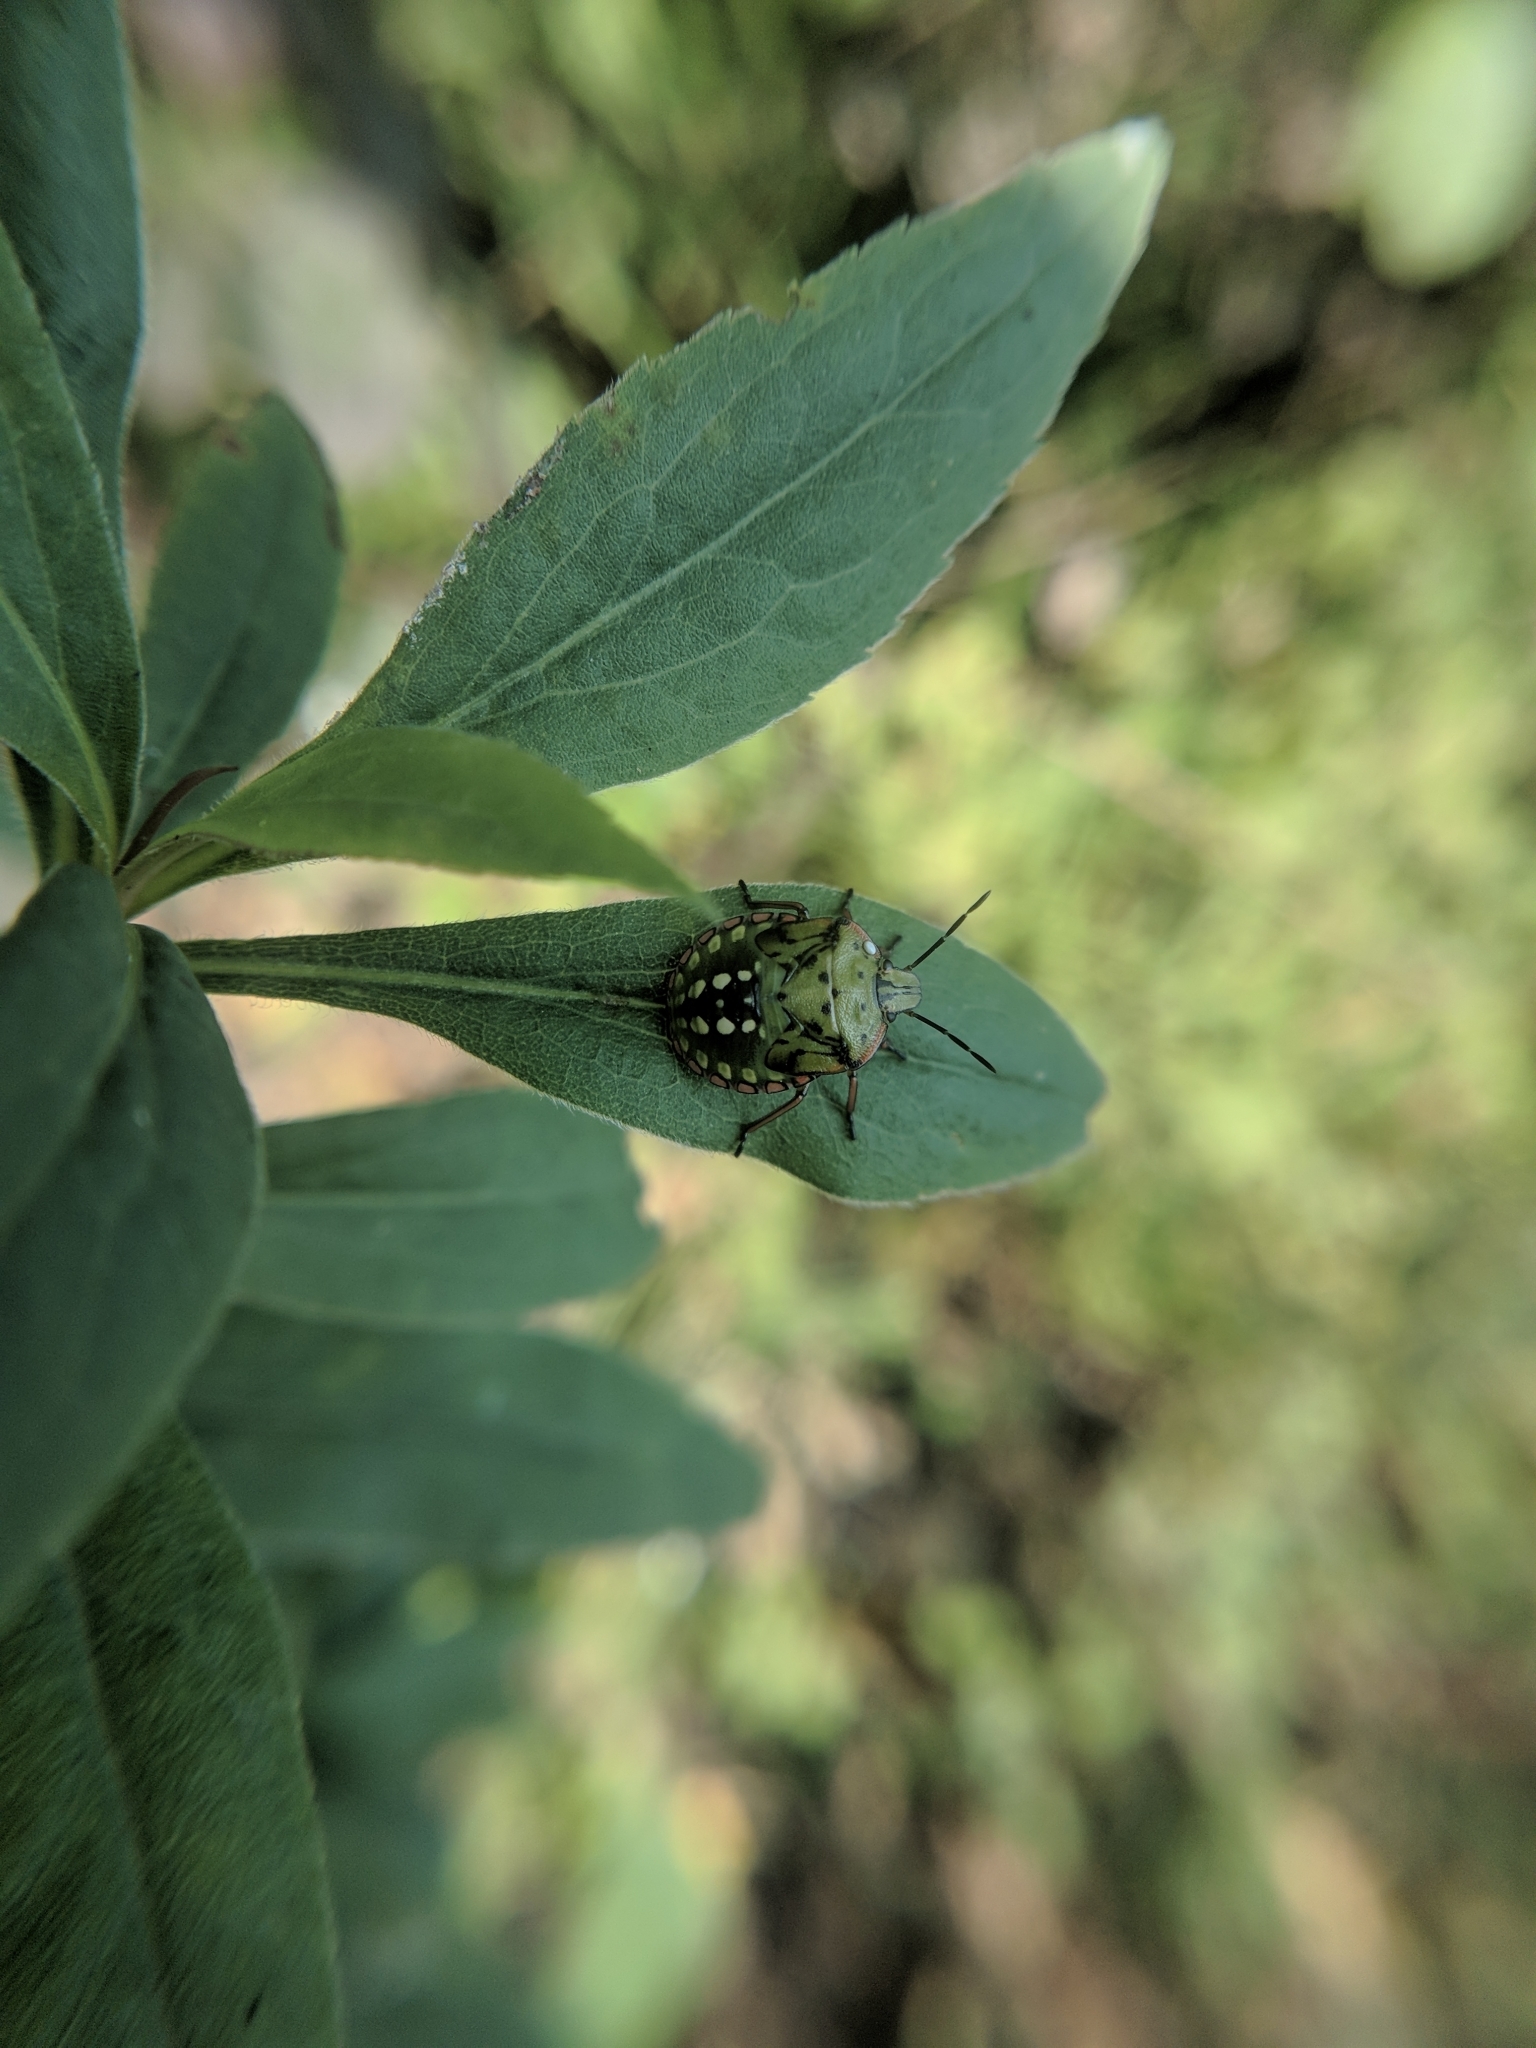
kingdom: Animalia
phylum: Arthropoda
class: Insecta
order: Hemiptera
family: Pentatomidae
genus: Nezara
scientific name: Nezara viridula
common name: Southern green stink bug
